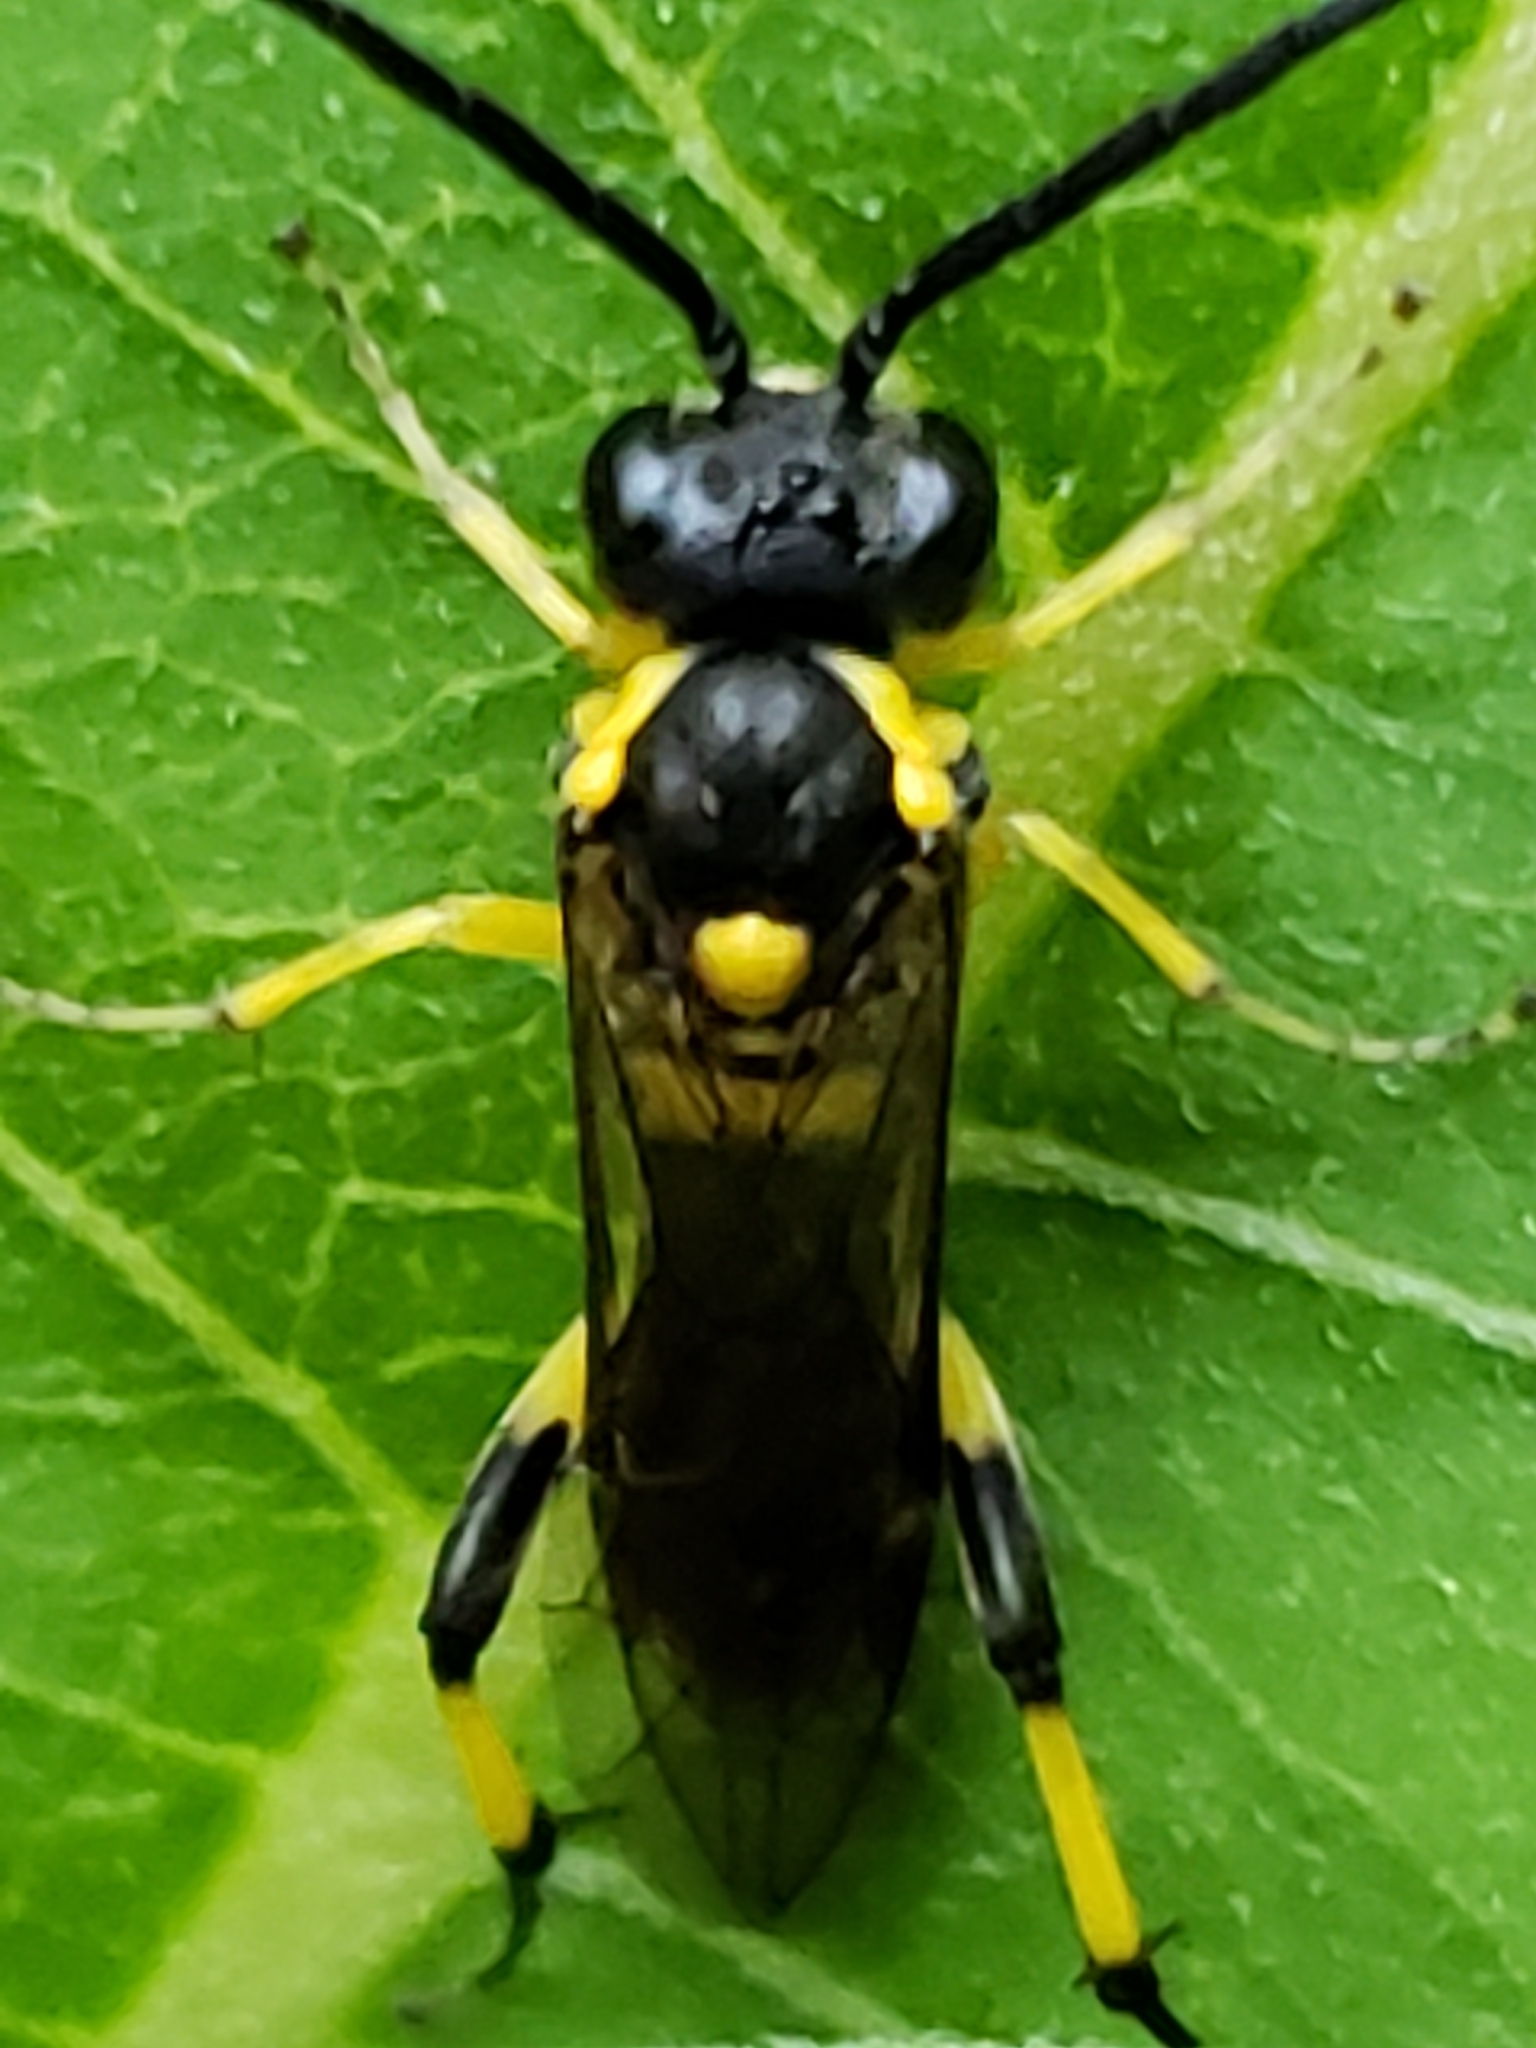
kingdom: Animalia
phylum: Arthropoda
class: Insecta
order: Hymenoptera
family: Tenthredinidae
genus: Macrophya
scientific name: Macrophya alba
